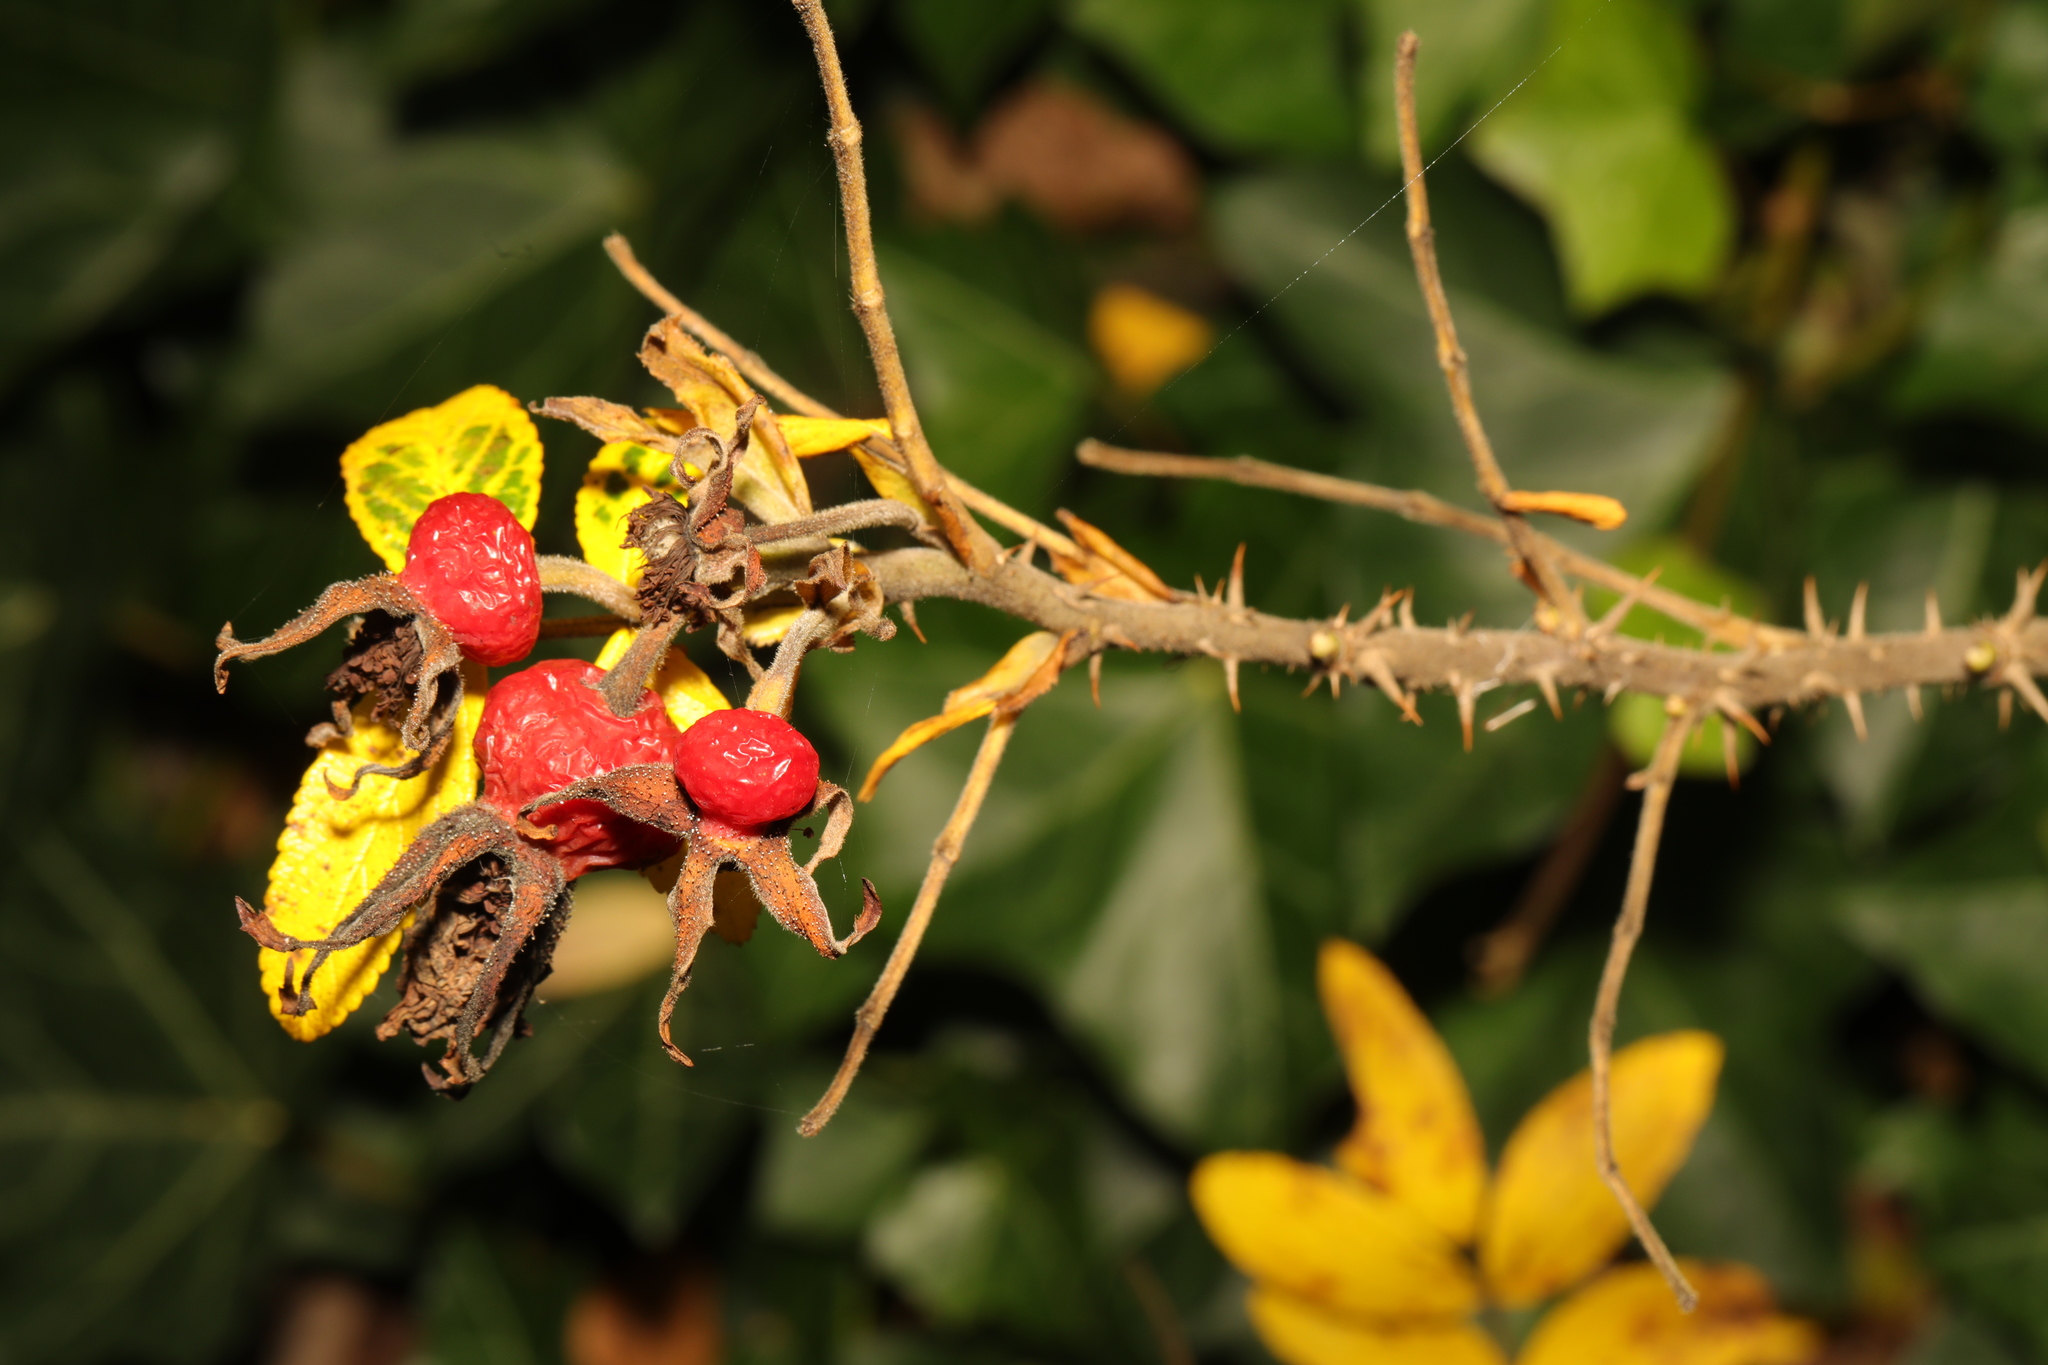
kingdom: Plantae
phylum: Tracheophyta
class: Magnoliopsida
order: Rosales
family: Rosaceae
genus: Rosa
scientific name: Rosa rugosa
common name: Japanese rose
